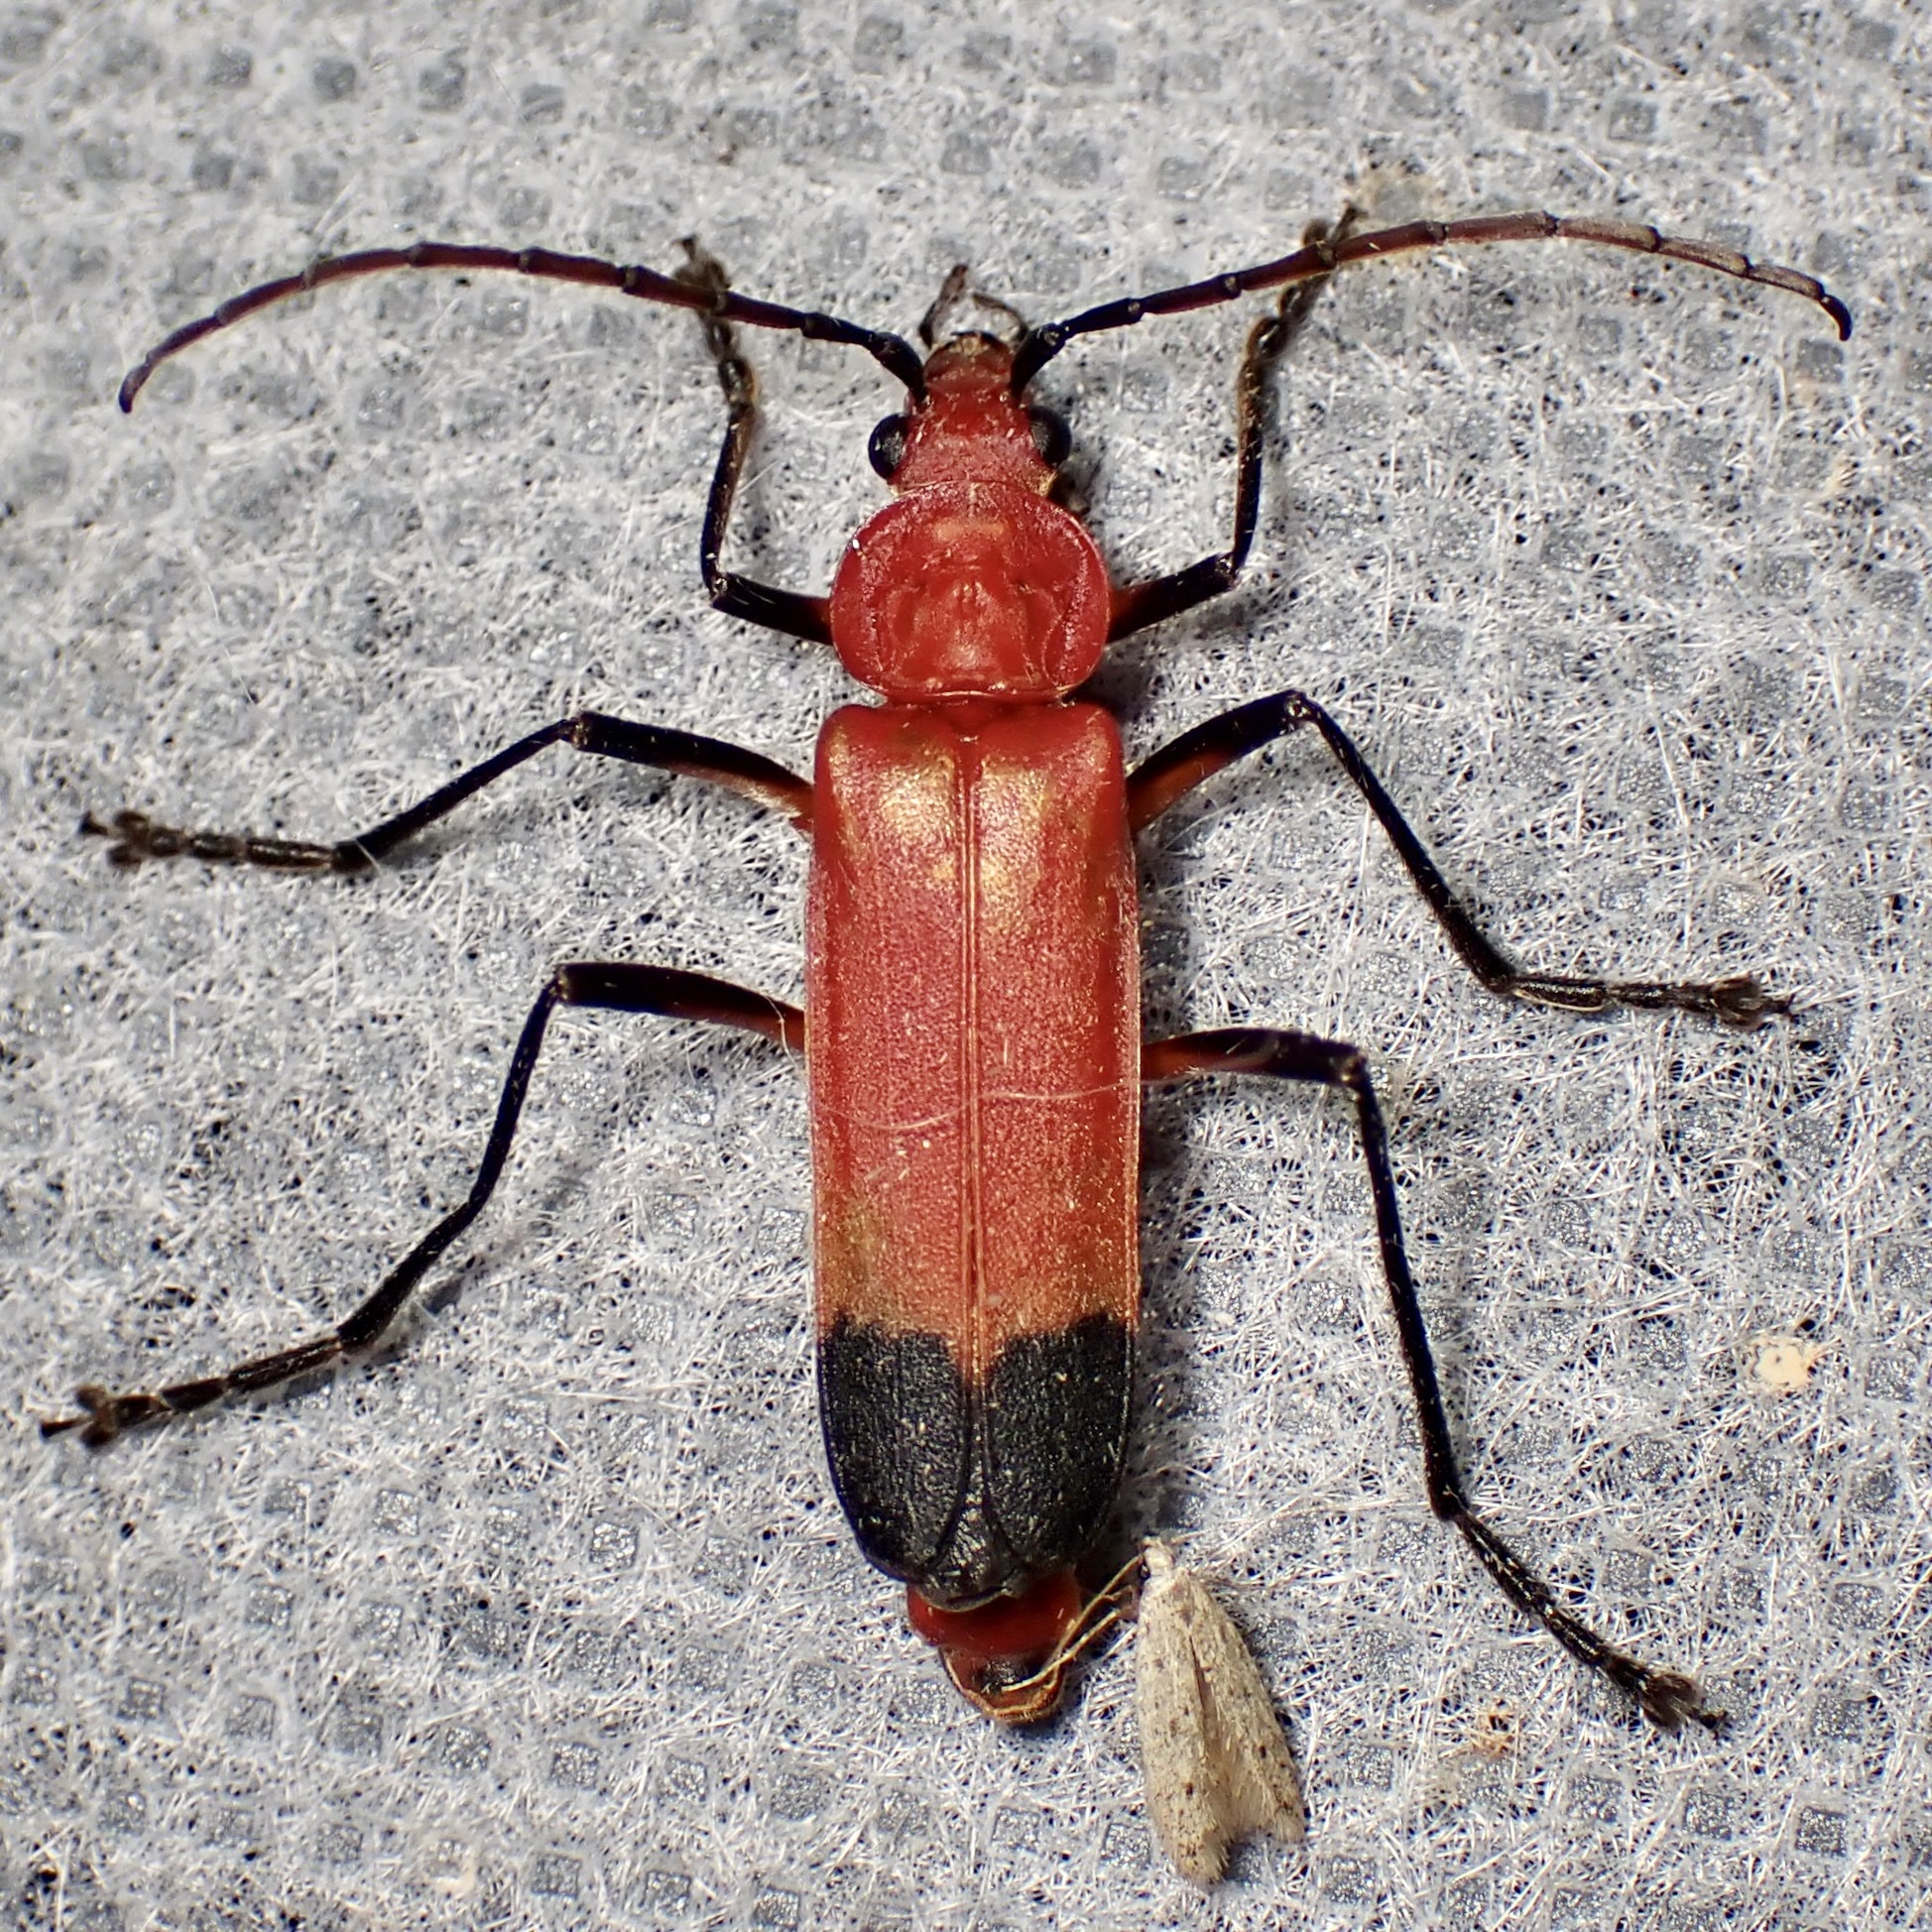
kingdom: Animalia
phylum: Arthropoda
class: Insecta
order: Coleoptera
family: Cantharidae
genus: Chauliognathus
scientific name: Chauliognathus lecontei
